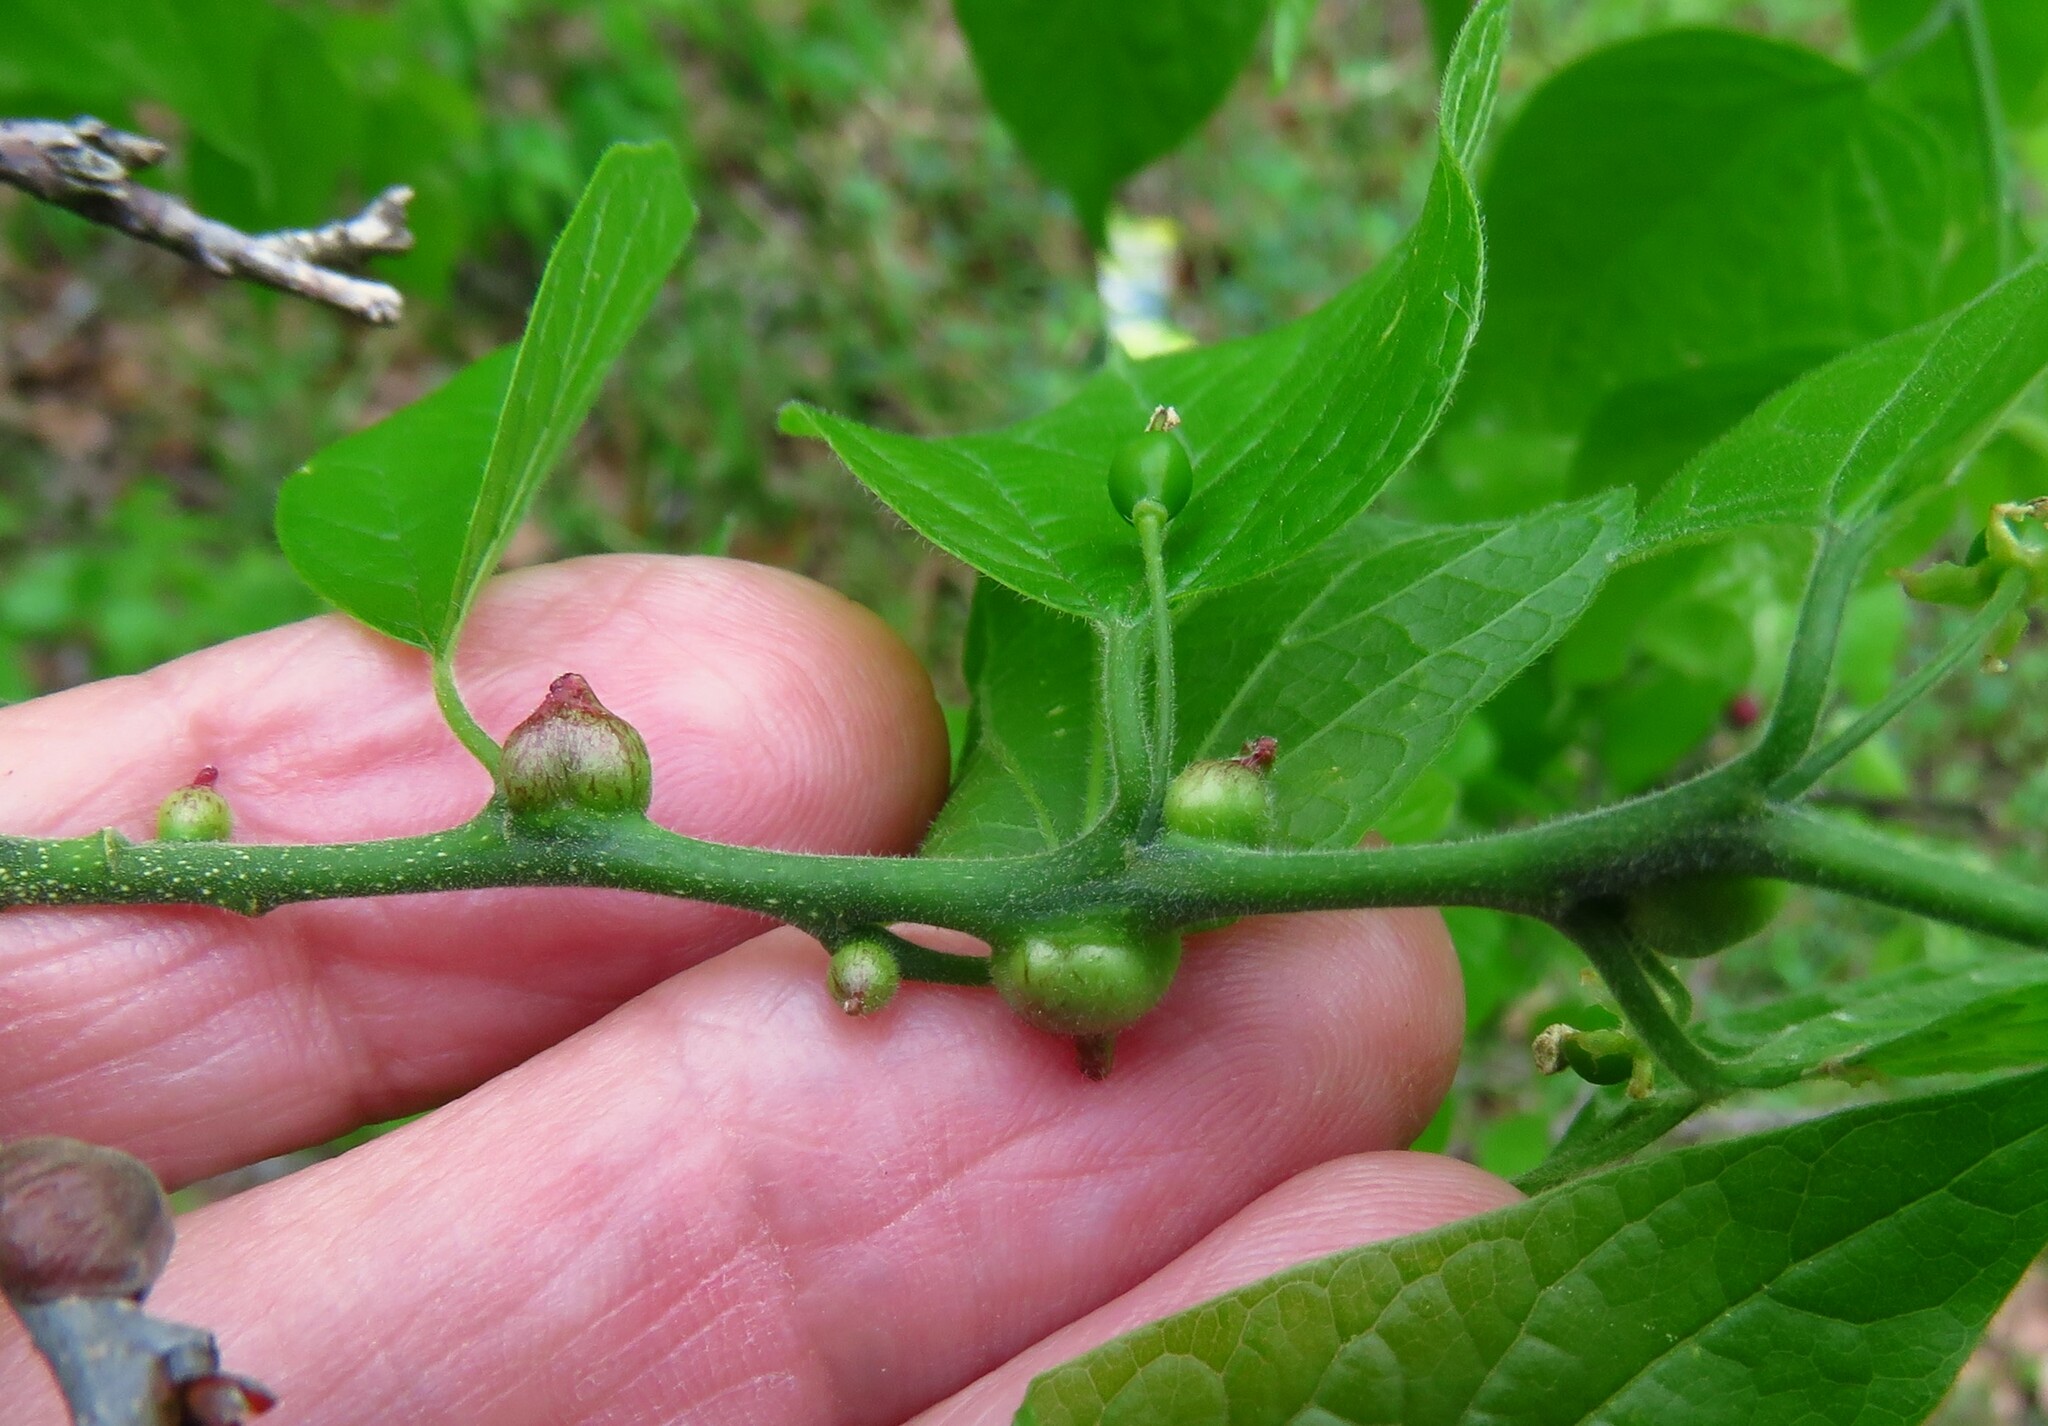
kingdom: Animalia
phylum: Arthropoda
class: Insecta
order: Diptera
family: Cecidomyiidae
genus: Celticecis
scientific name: Celticecis connata
